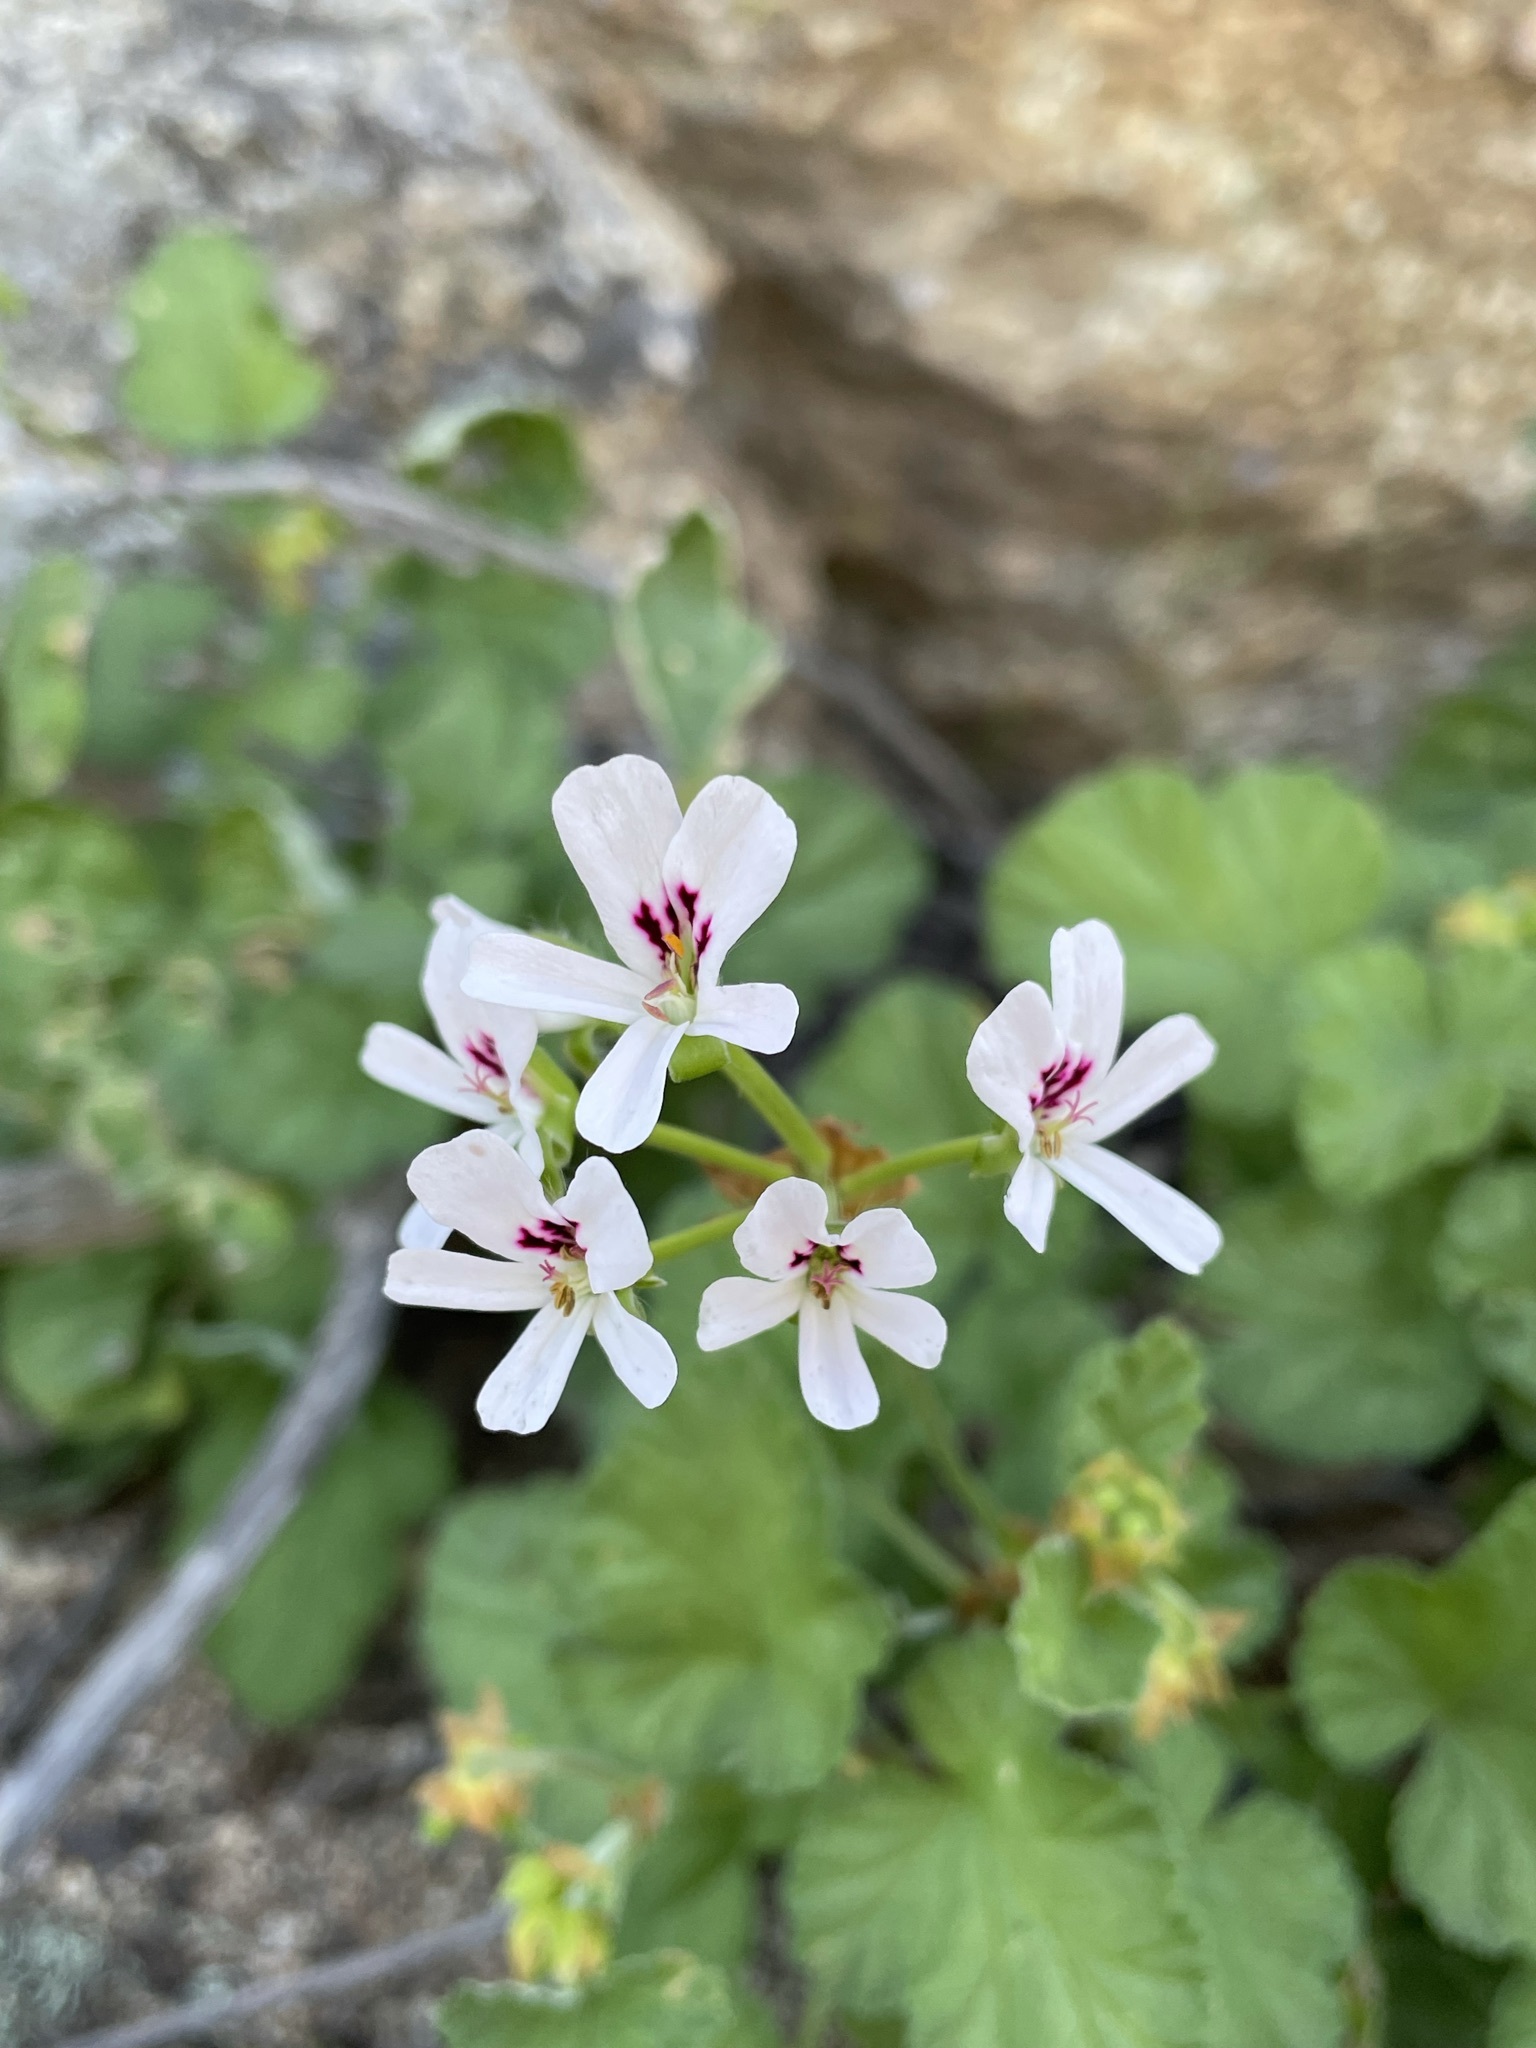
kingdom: Plantae
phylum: Tracheophyta
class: Magnoliopsida
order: Geraniales
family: Geraniaceae
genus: Pelargonium
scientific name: Pelargonium echinatum
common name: Cactus geranium
